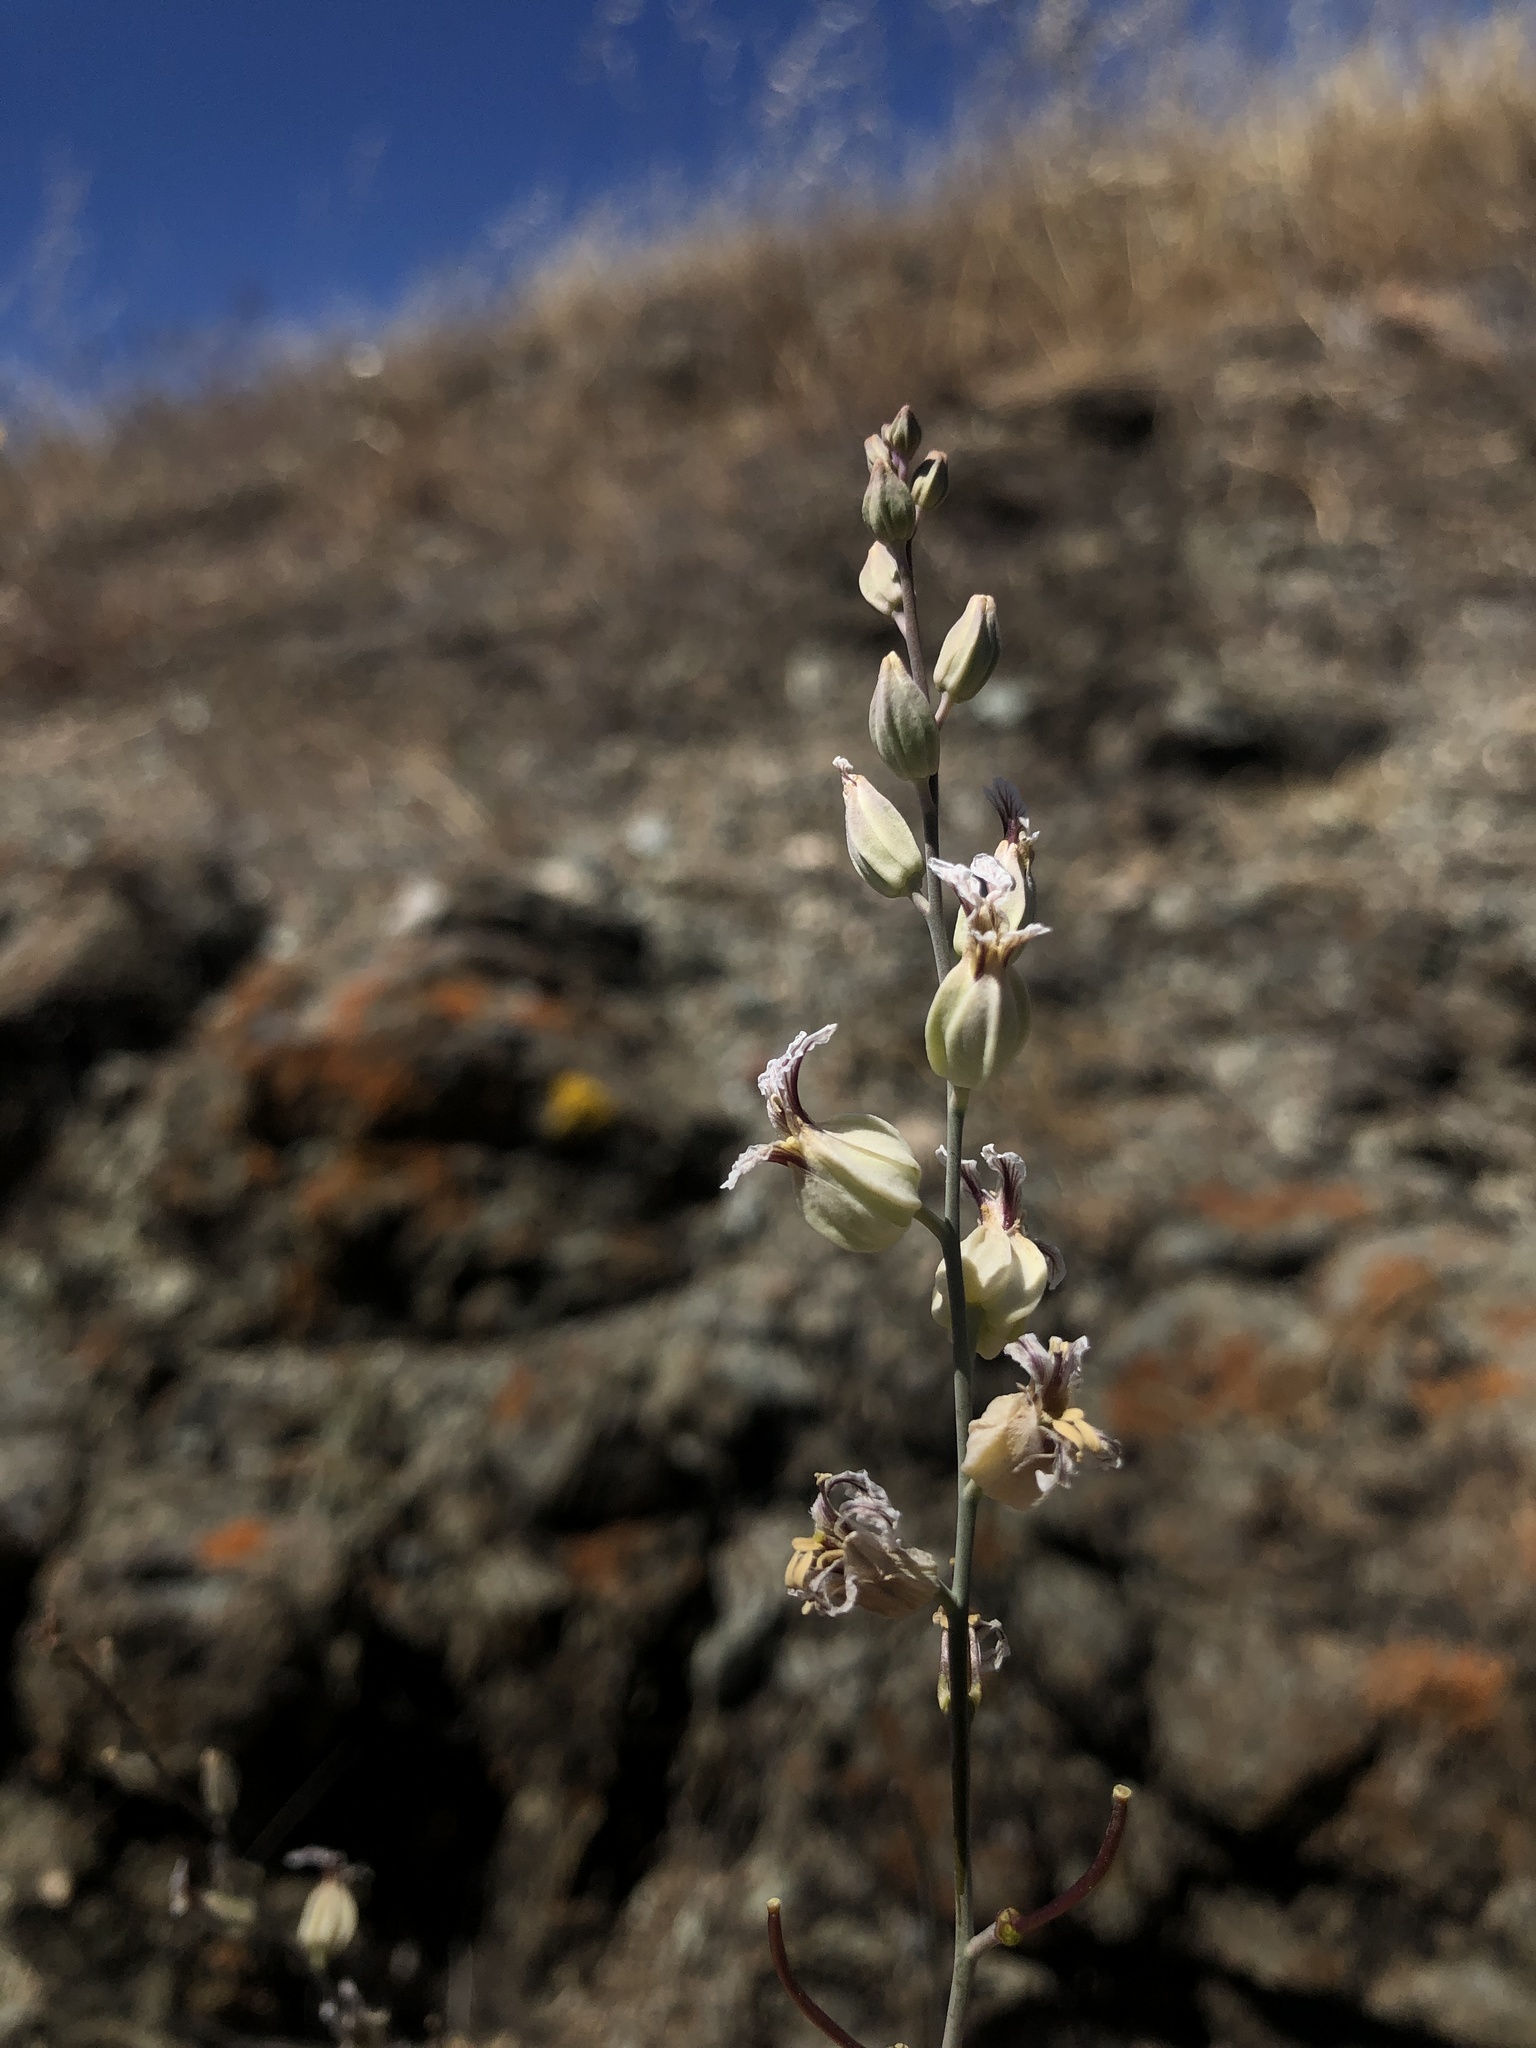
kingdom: Plantae
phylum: Tracheophyta
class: Magnoliopsida
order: Brassicales
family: Brassicaceae
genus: Streptanthus
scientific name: Streptanthus glandulosus
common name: Jewel-flower
